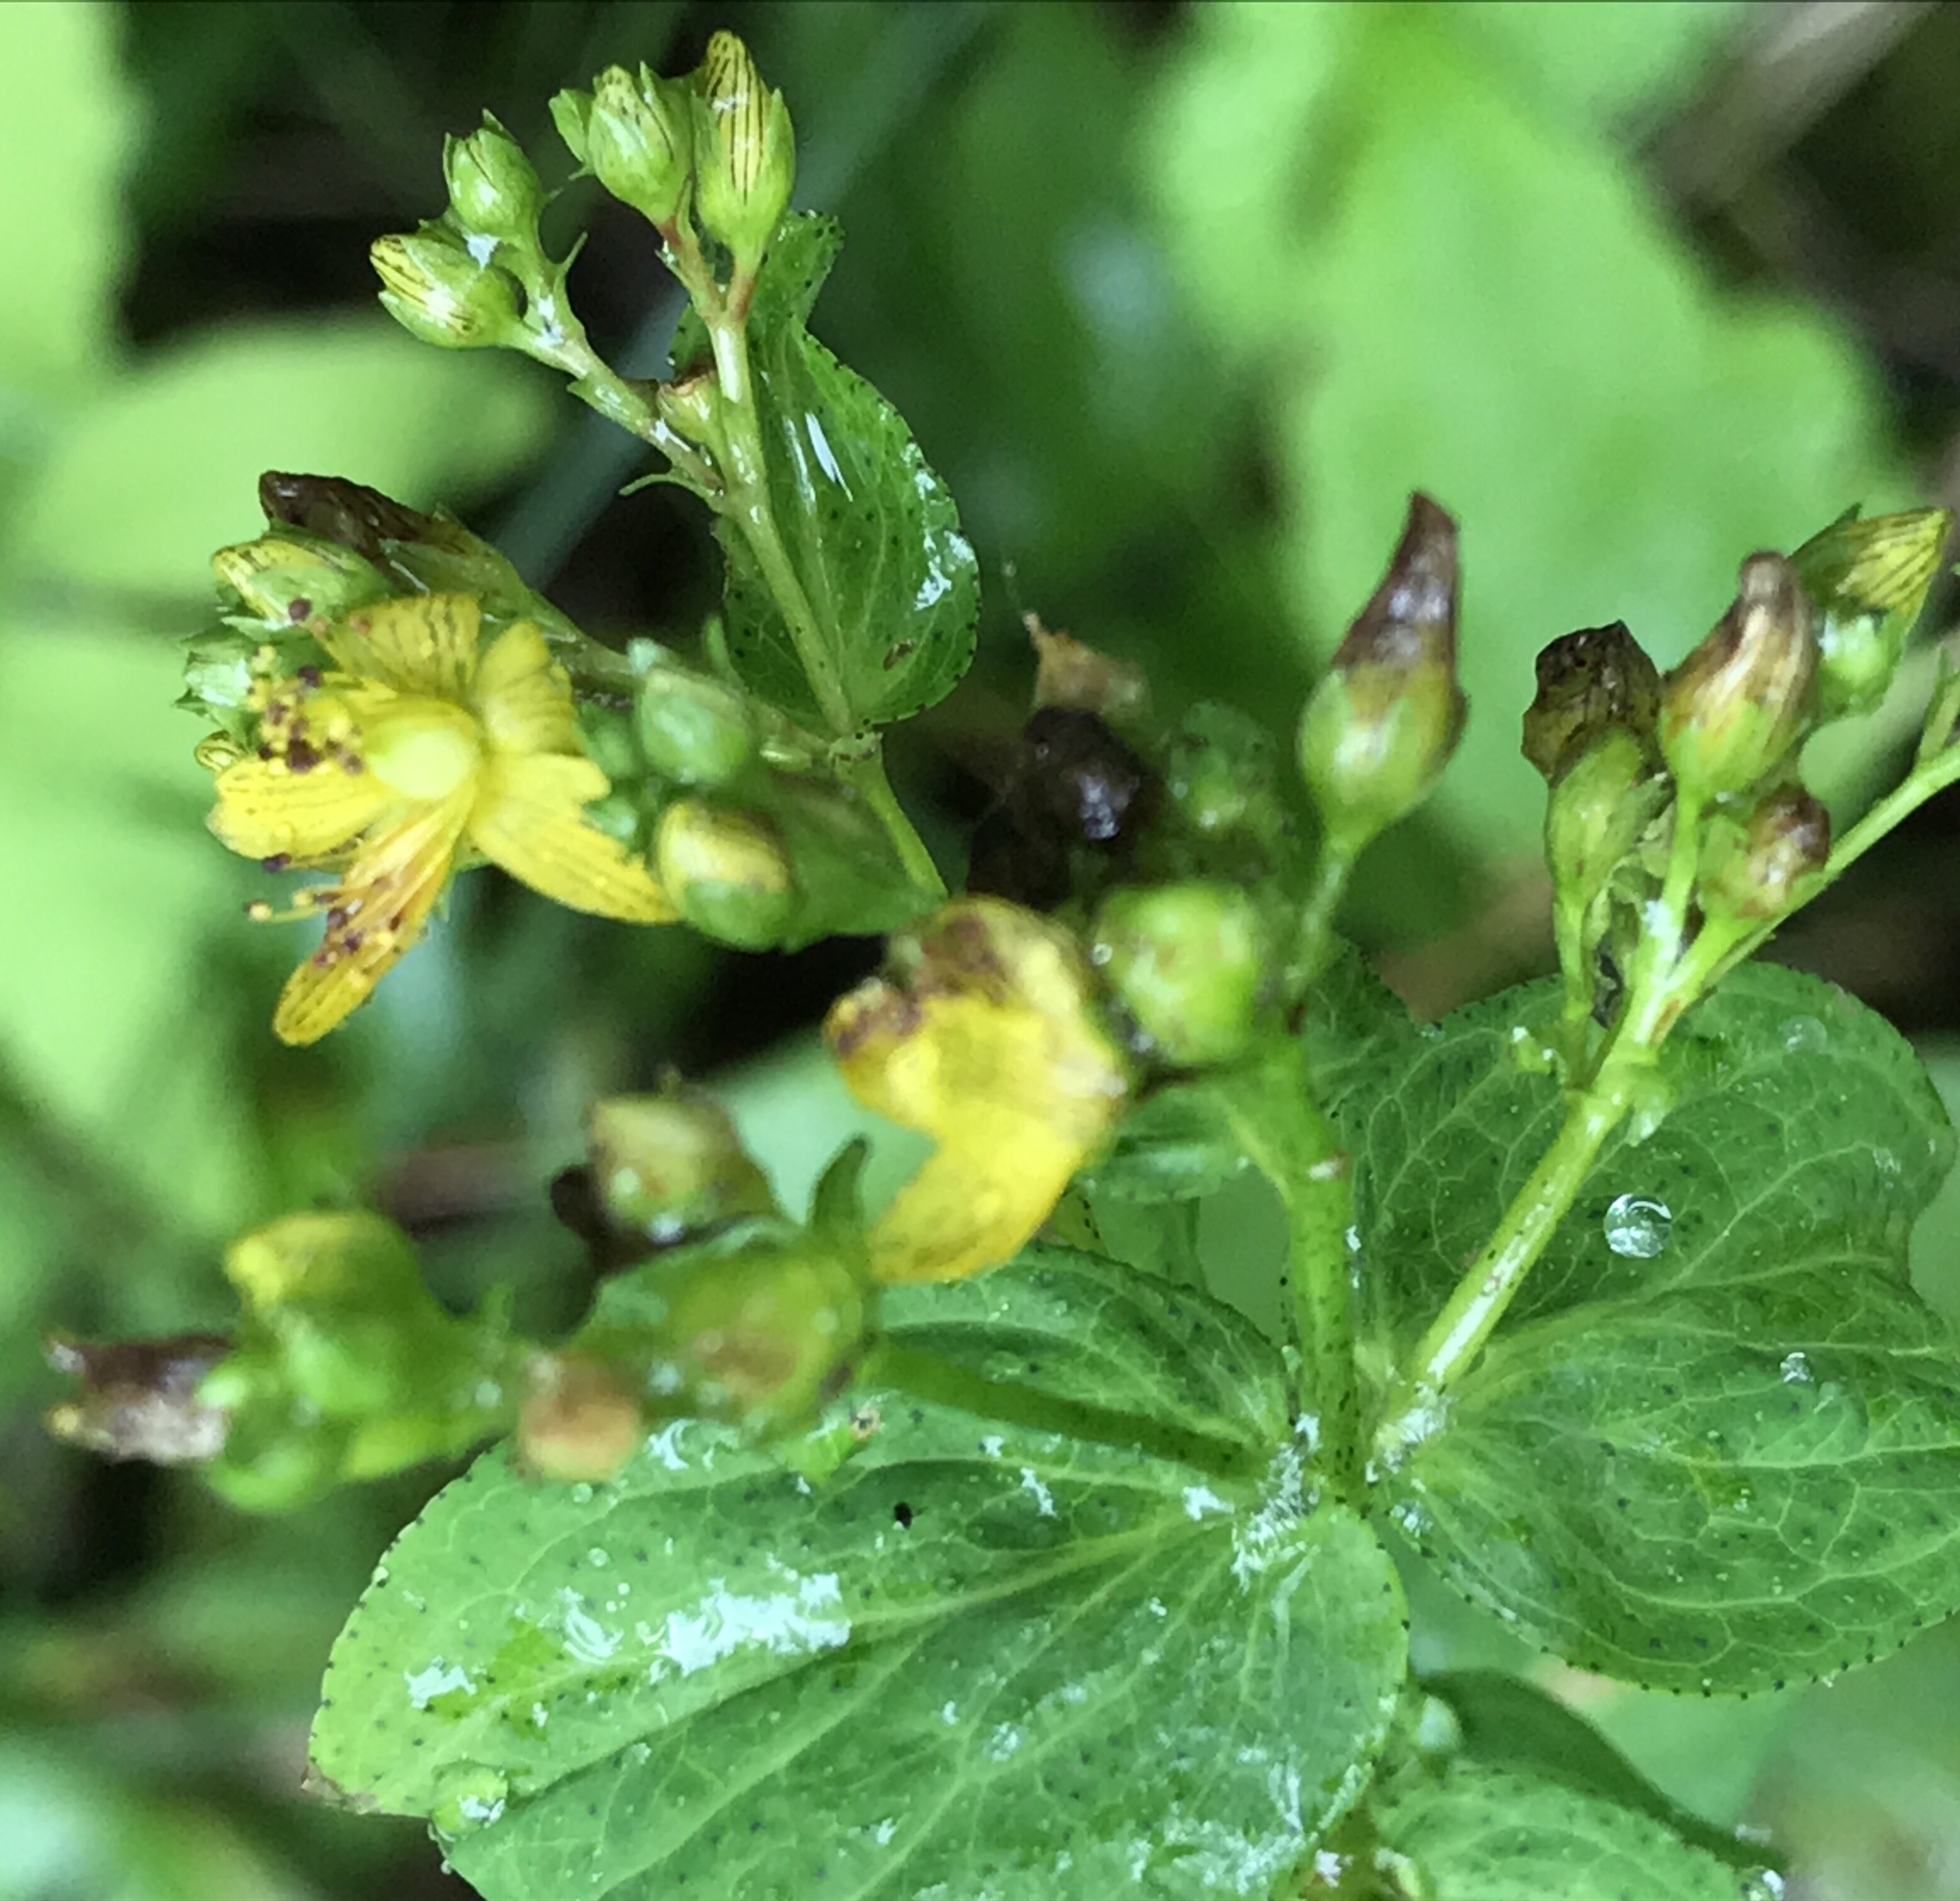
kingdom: Plantae
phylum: Tracheophyta
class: Magnoliopsida
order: Malpighiales
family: Hypericaceae
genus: Hypericum
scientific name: Hypericum punctatum
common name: Spotted st. john's-wort
